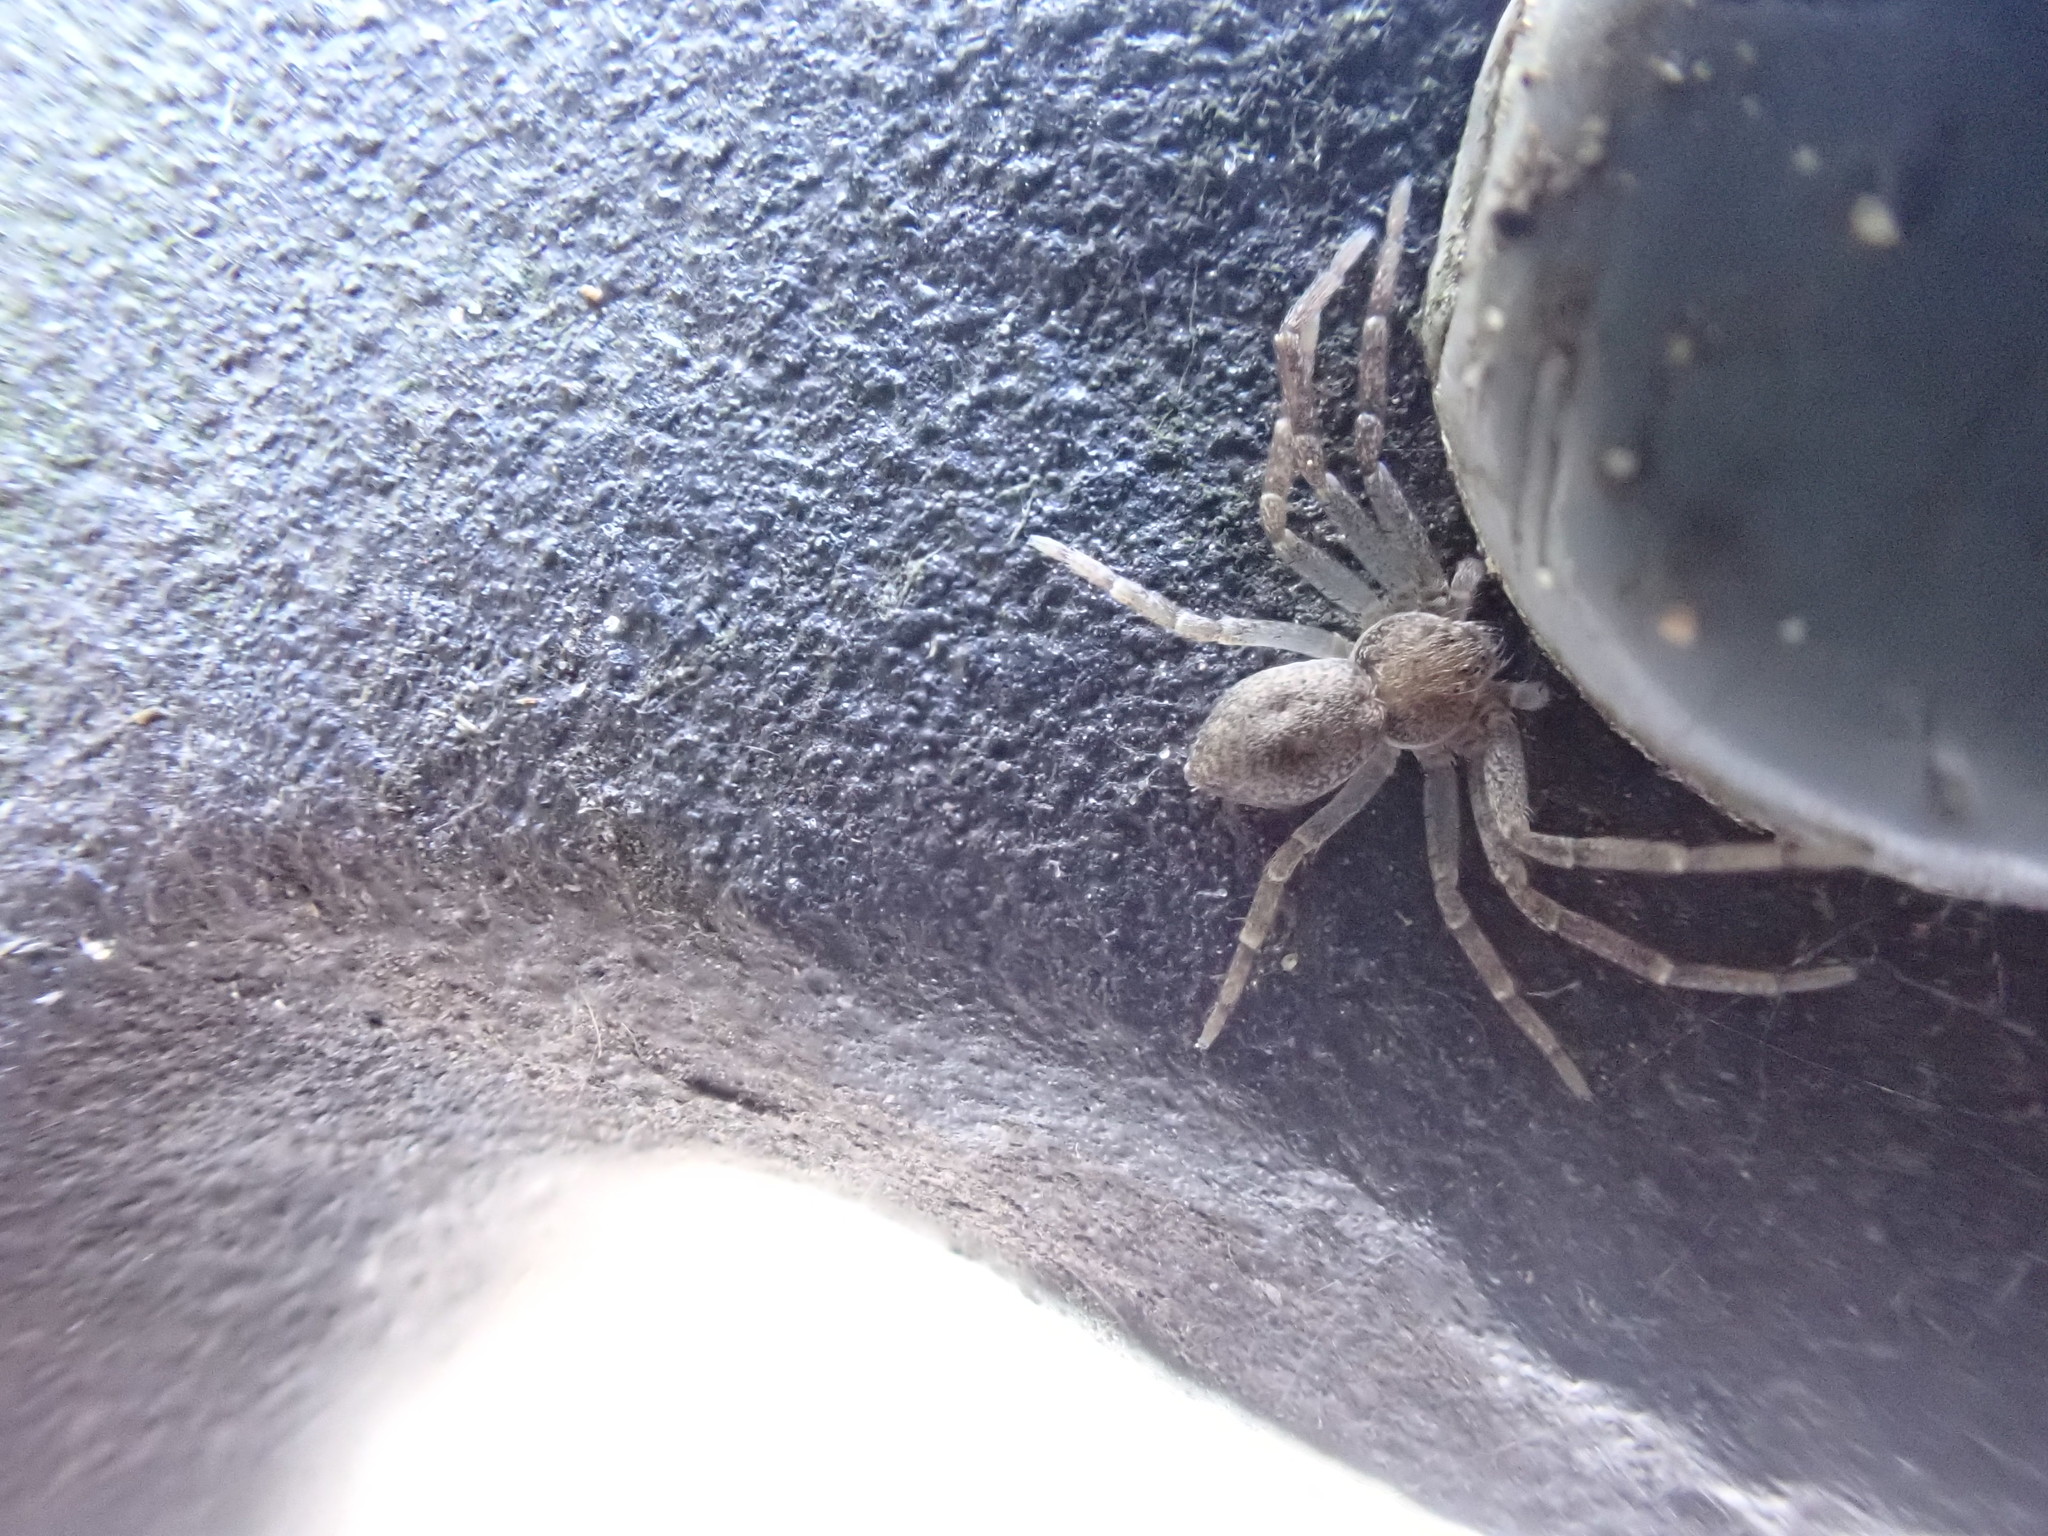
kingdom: Animalia
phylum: Arthropoda
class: Arachnida
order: Araneae
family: Philodromidae
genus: Philodromus
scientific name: Philodromus
